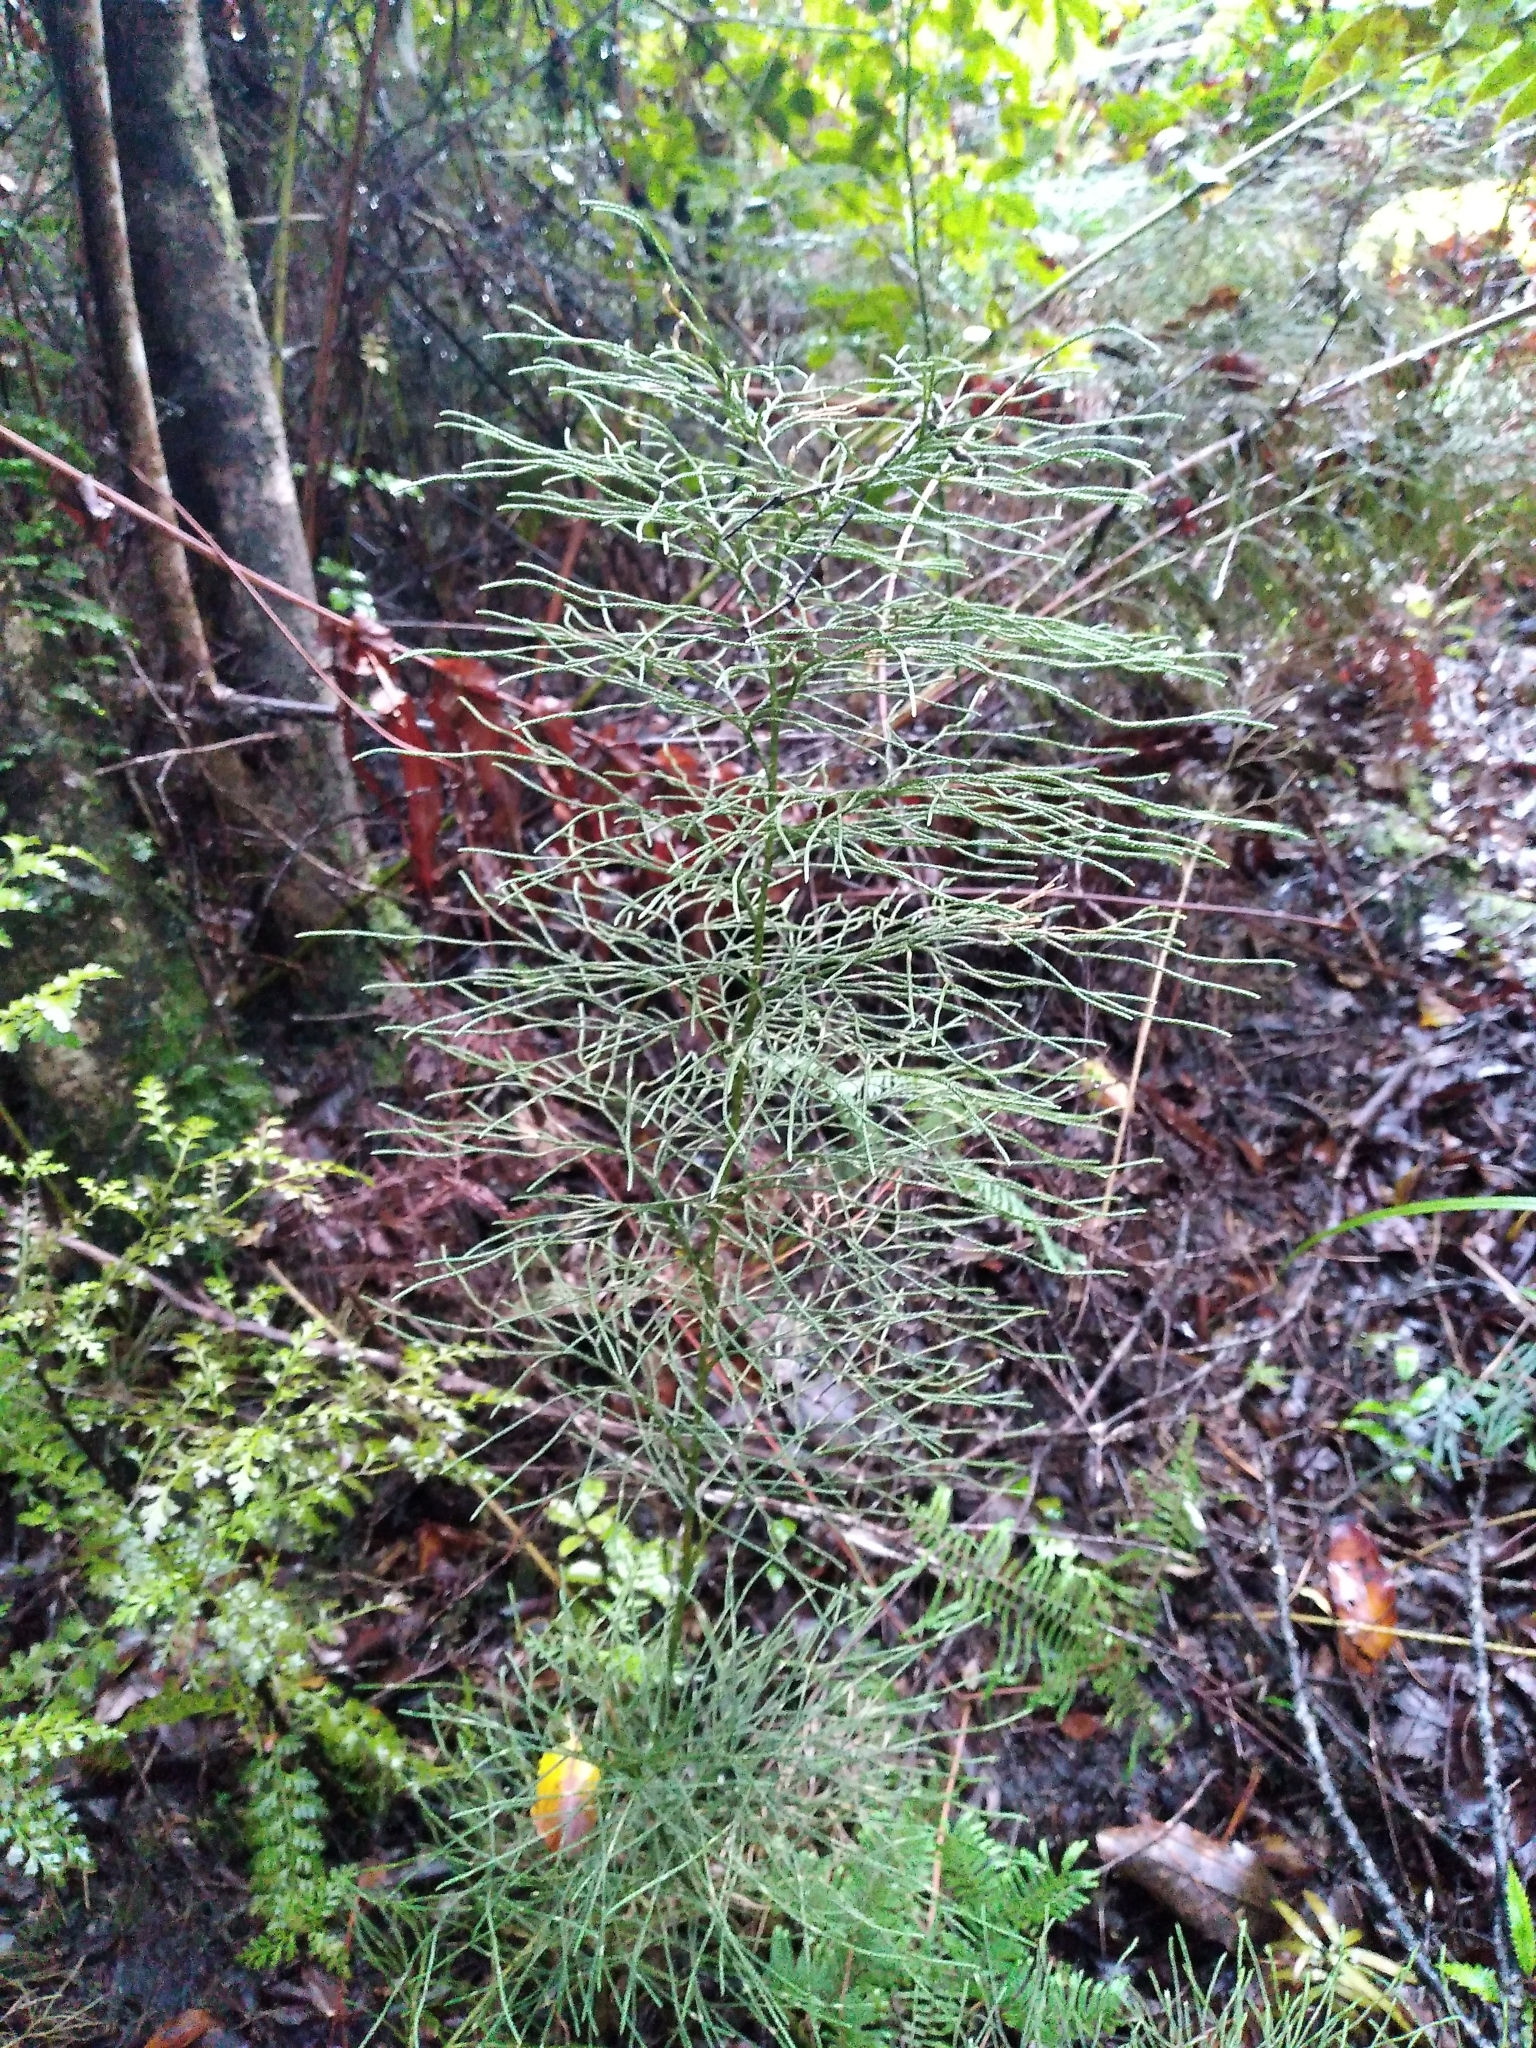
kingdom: Plantae
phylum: Tracheophyta
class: Lycopodiopsida
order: Lycopodiales
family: Lycopodiaceae
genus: Pseudolycopodium
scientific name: Pseudolycopodium densum
